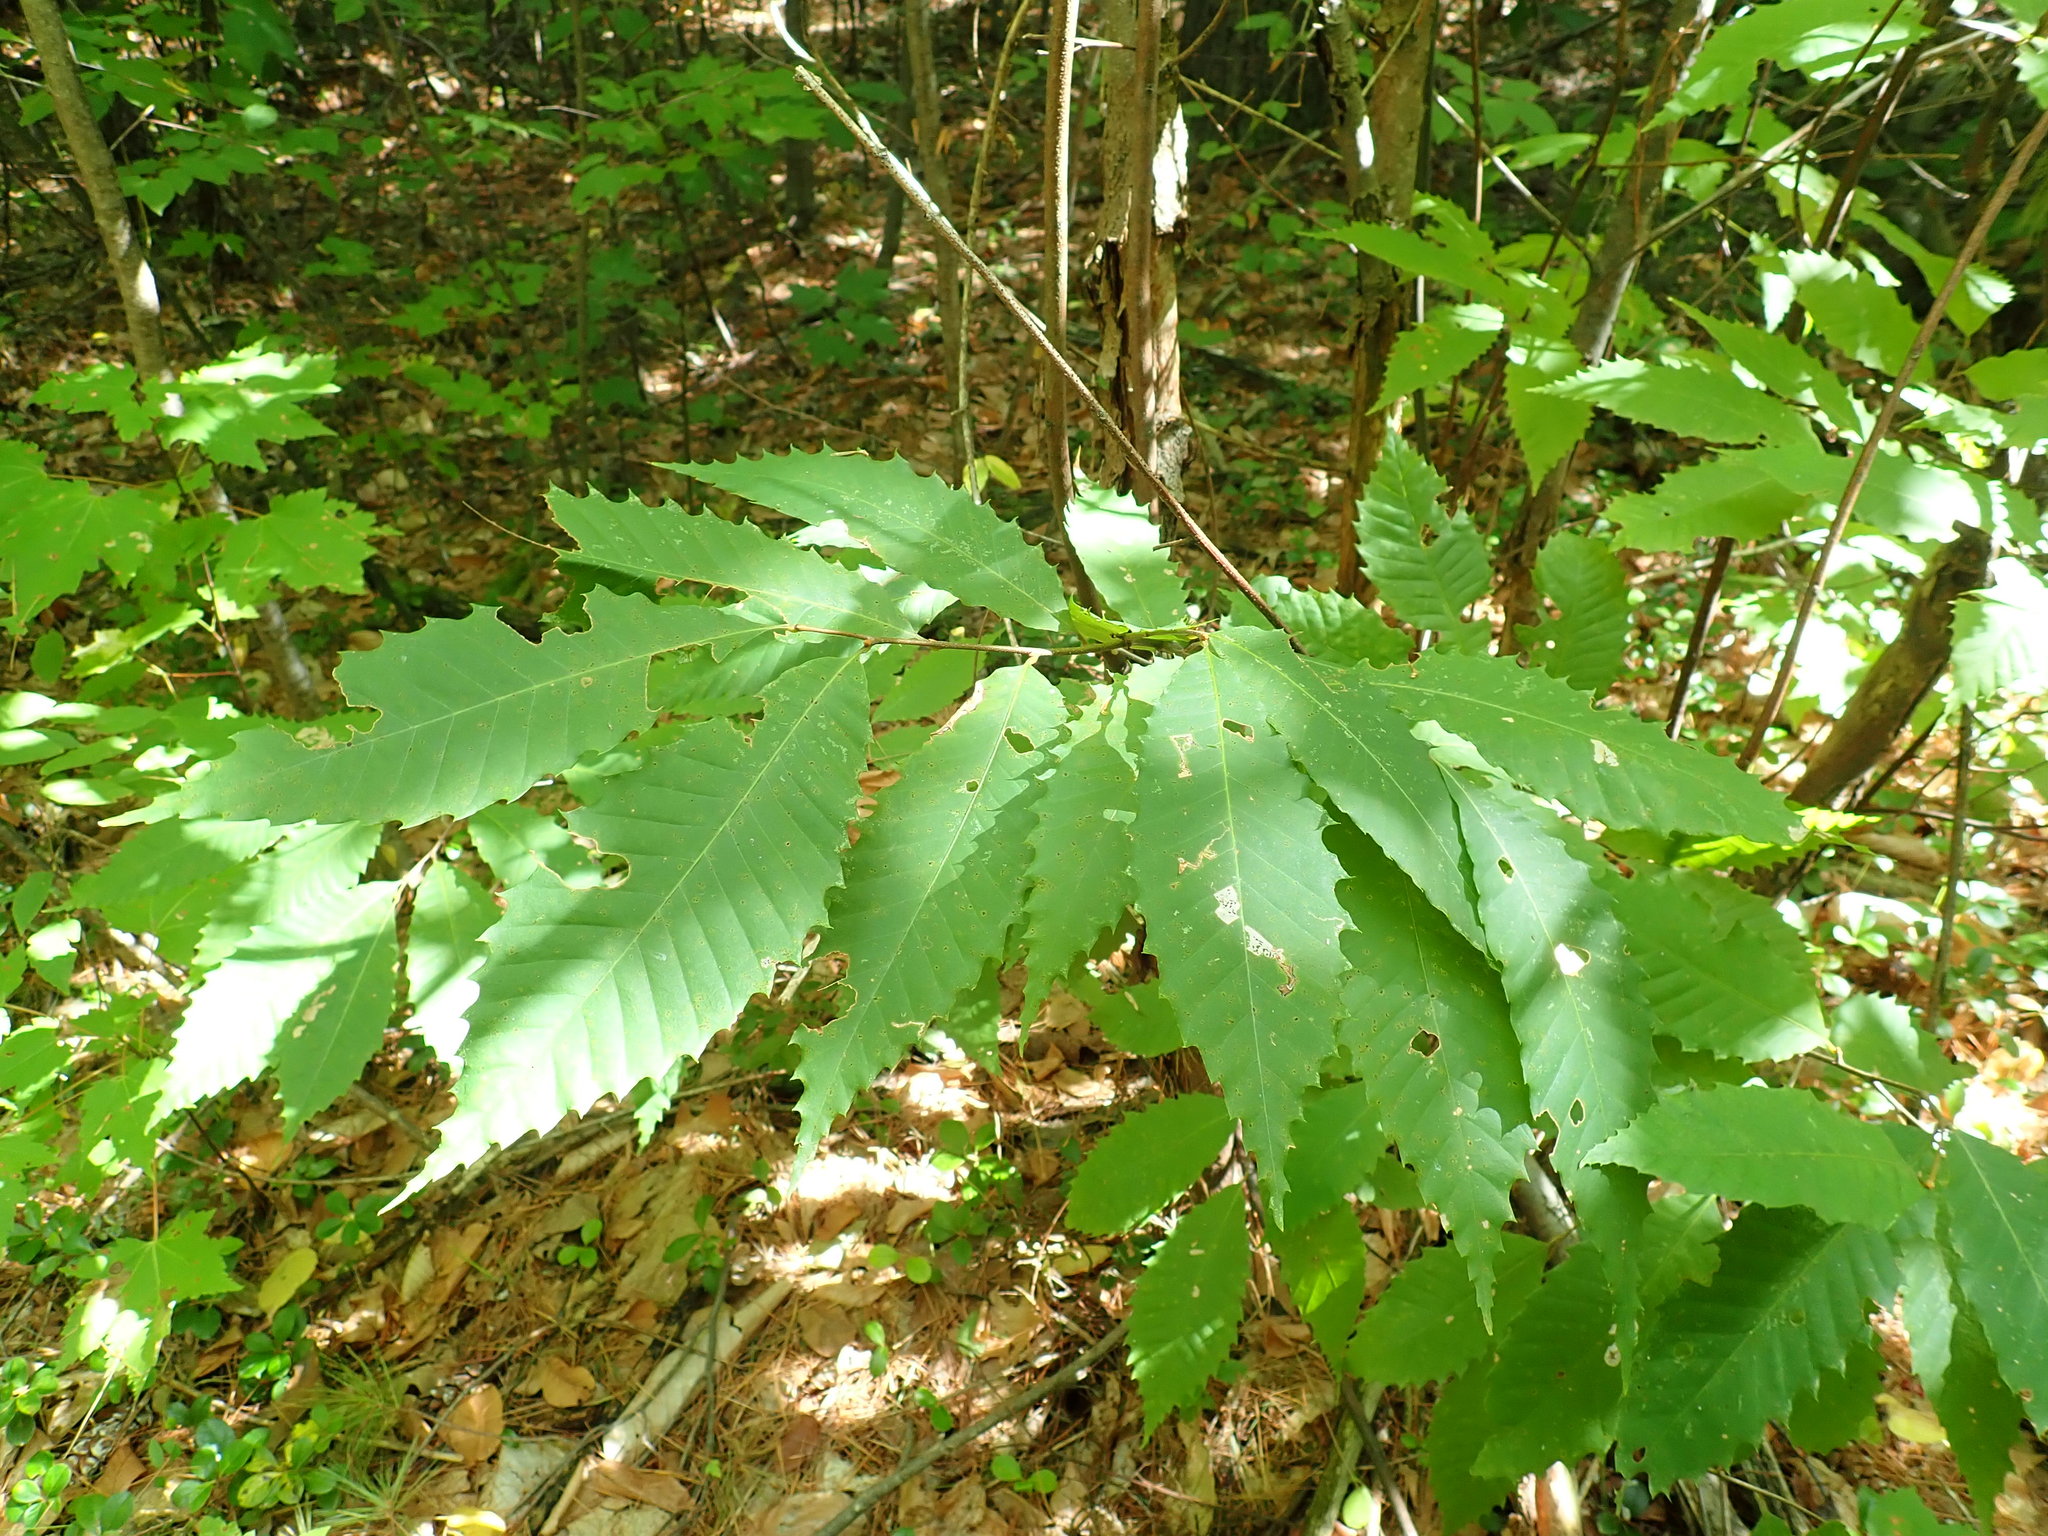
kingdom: Plantae
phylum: Tracheophyta
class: Magnoliopsida
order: Fagales
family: Fagaceae
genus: Castanea
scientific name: Castanea dentata
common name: American chestnut
